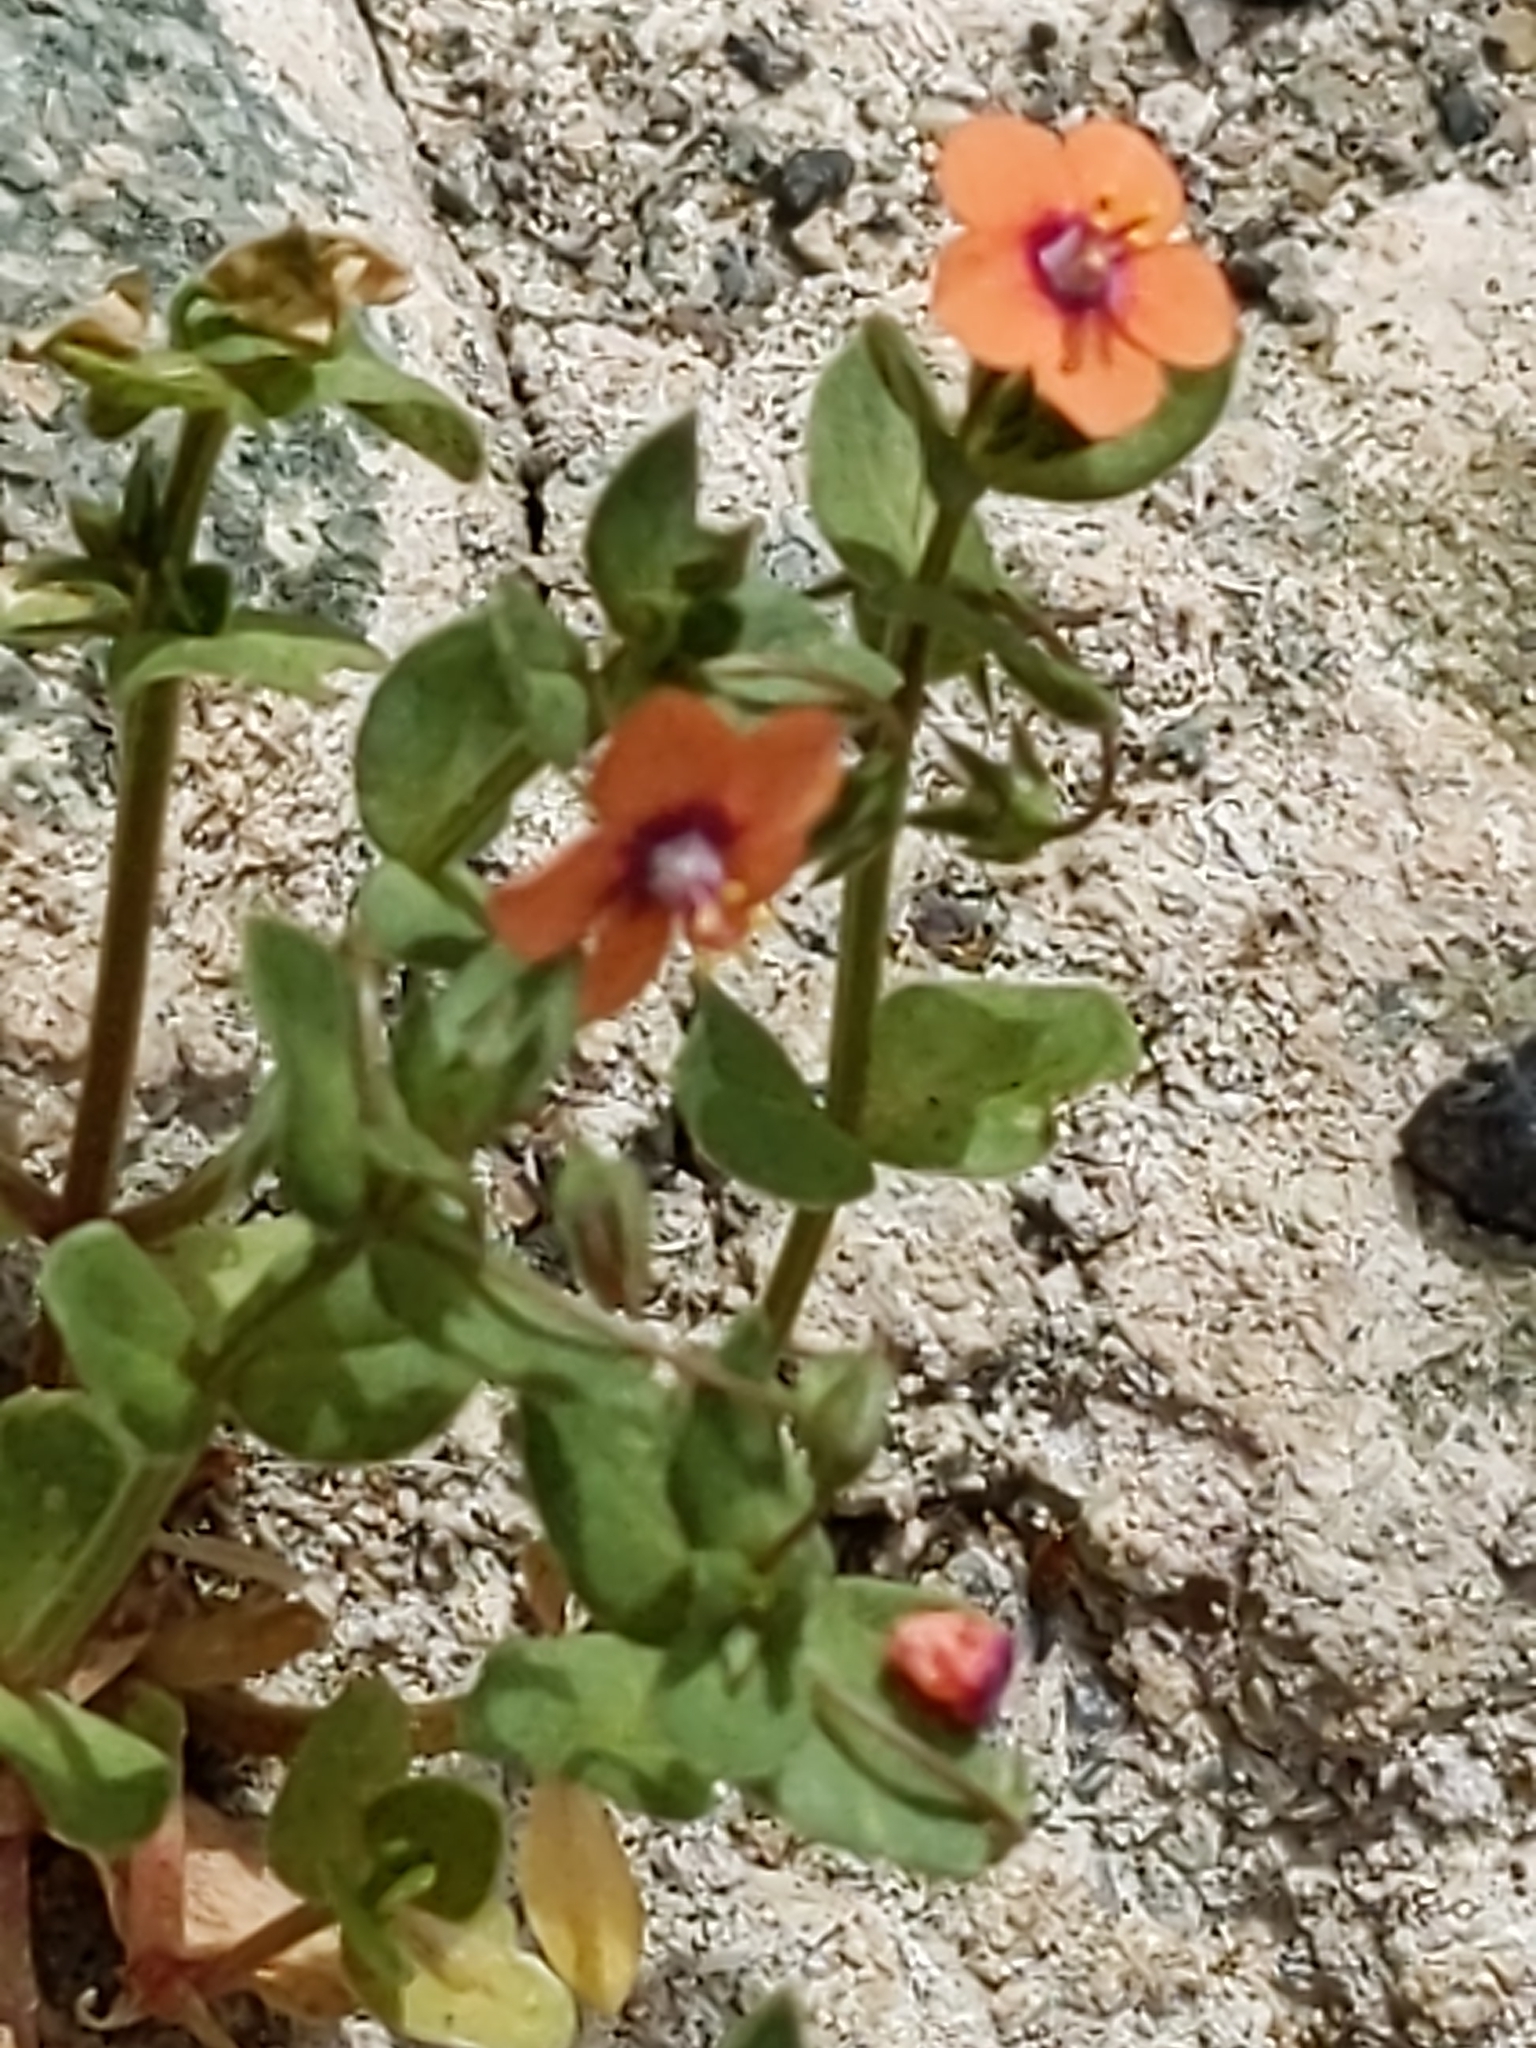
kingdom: Plantae
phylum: Tracheophyta
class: Magnoliopsida
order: Ericales
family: Primulaceae
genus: Lysimachia
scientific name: Lysimachia arvensis
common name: Scarlet pimpernel
